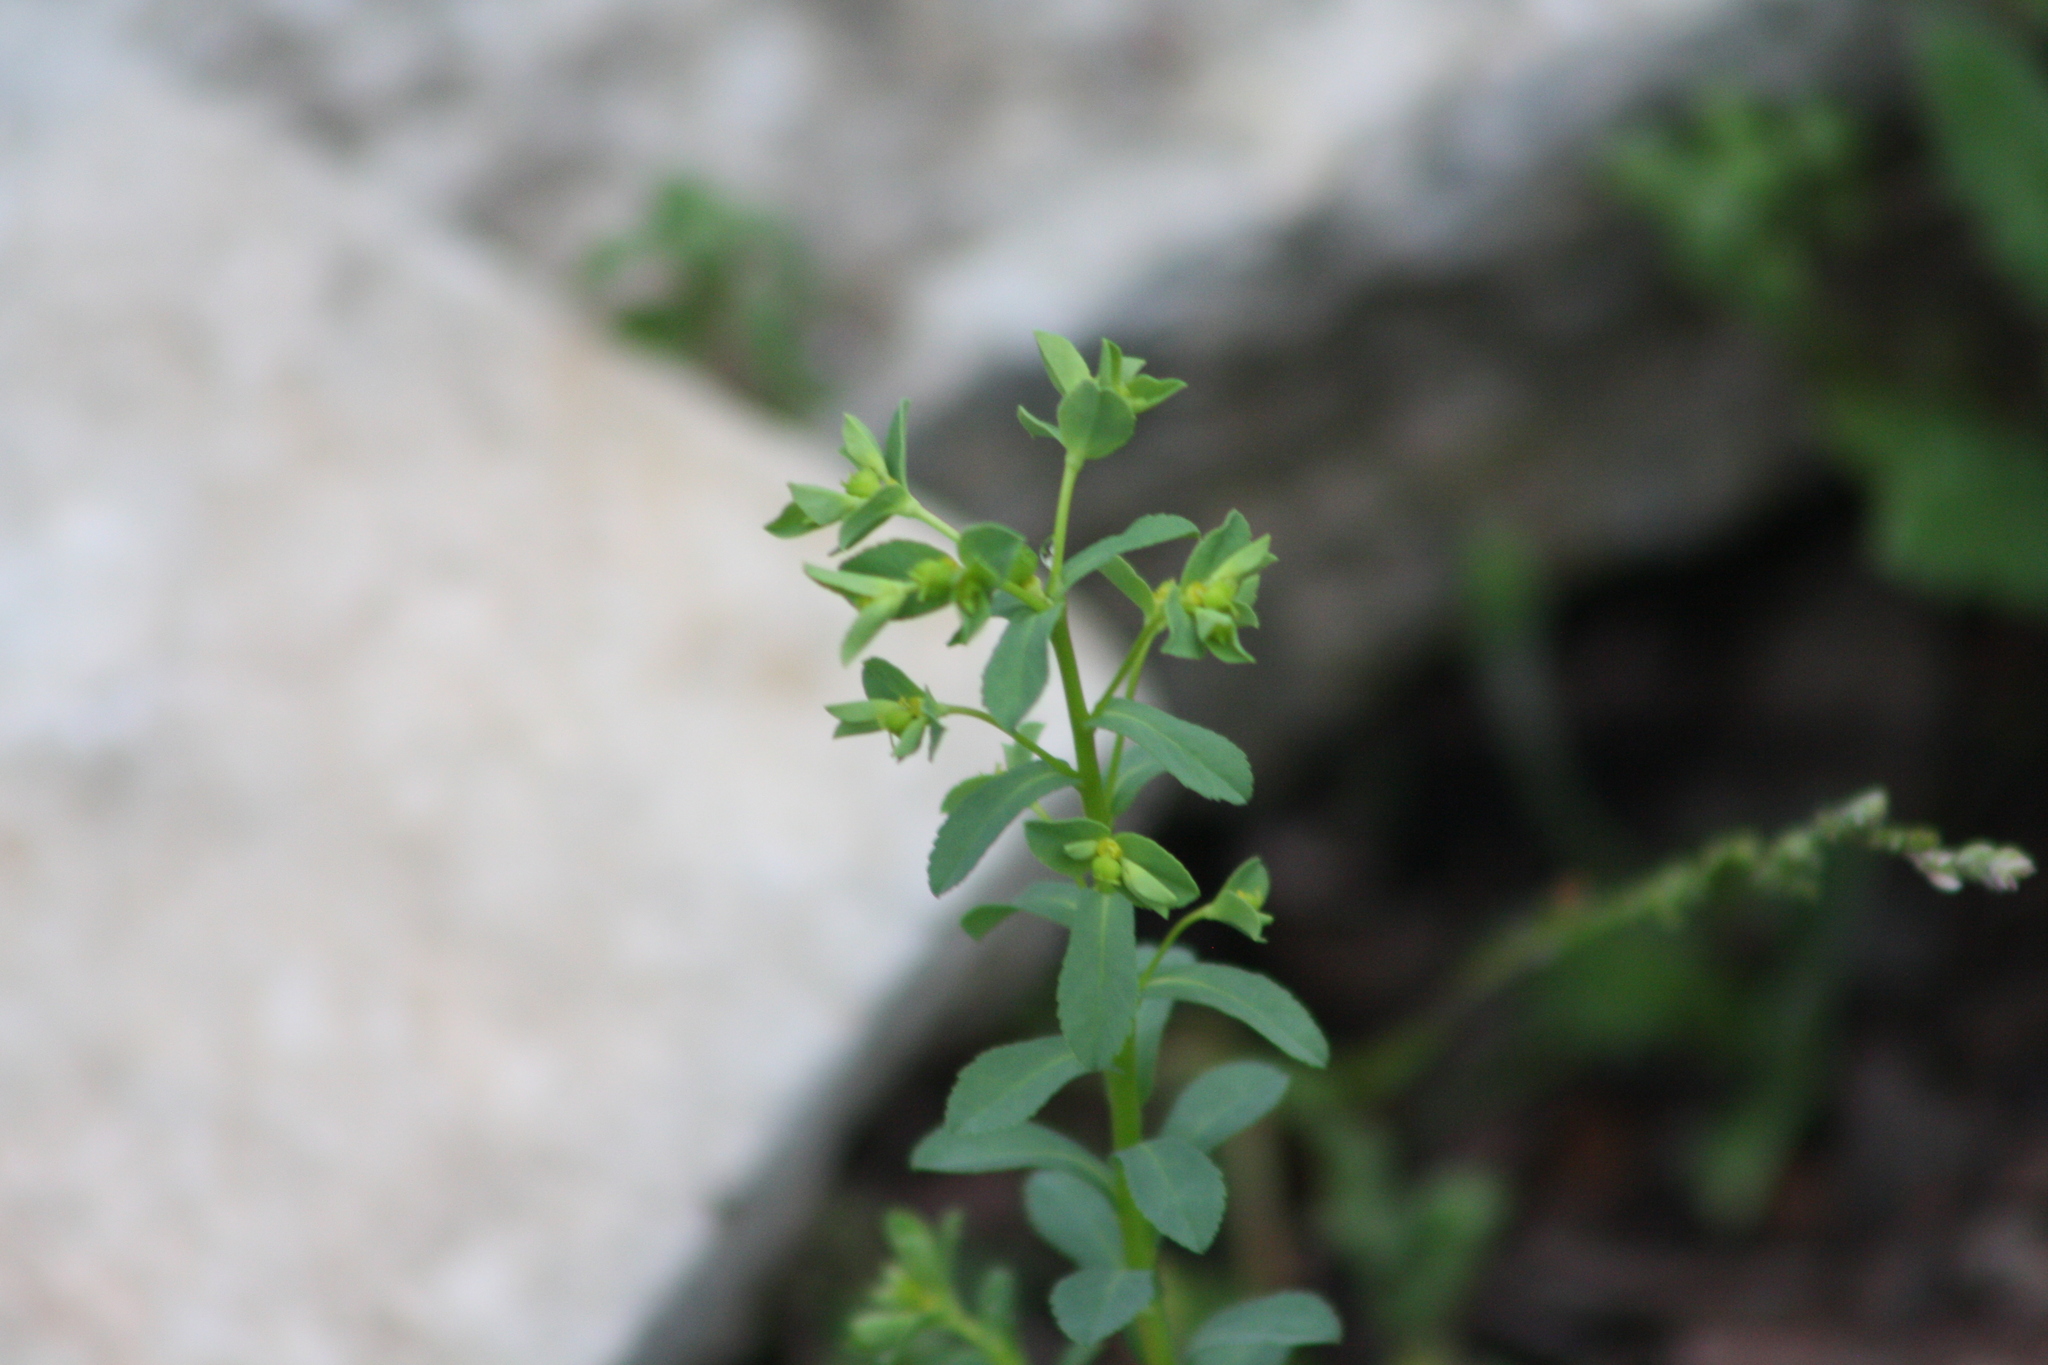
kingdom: Plantae
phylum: Tracheophyta
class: Magnoliopsida
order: Malpighiales
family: Euphorbiaceae
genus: Euphorbia
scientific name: Euphorbia spathulata
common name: Blunt spurge
